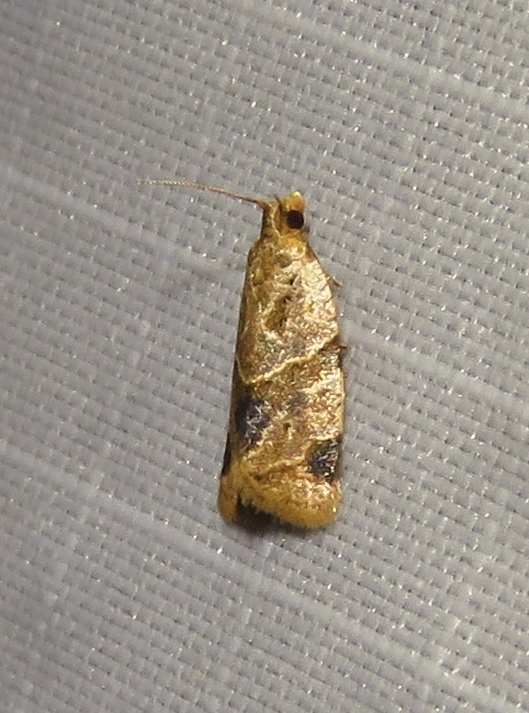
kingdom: Animalia
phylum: Arthropoda
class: Insecta
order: Lepidoptera
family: Tortricidae
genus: Clepsis
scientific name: Clepsis peritana
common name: Garden tortrix
